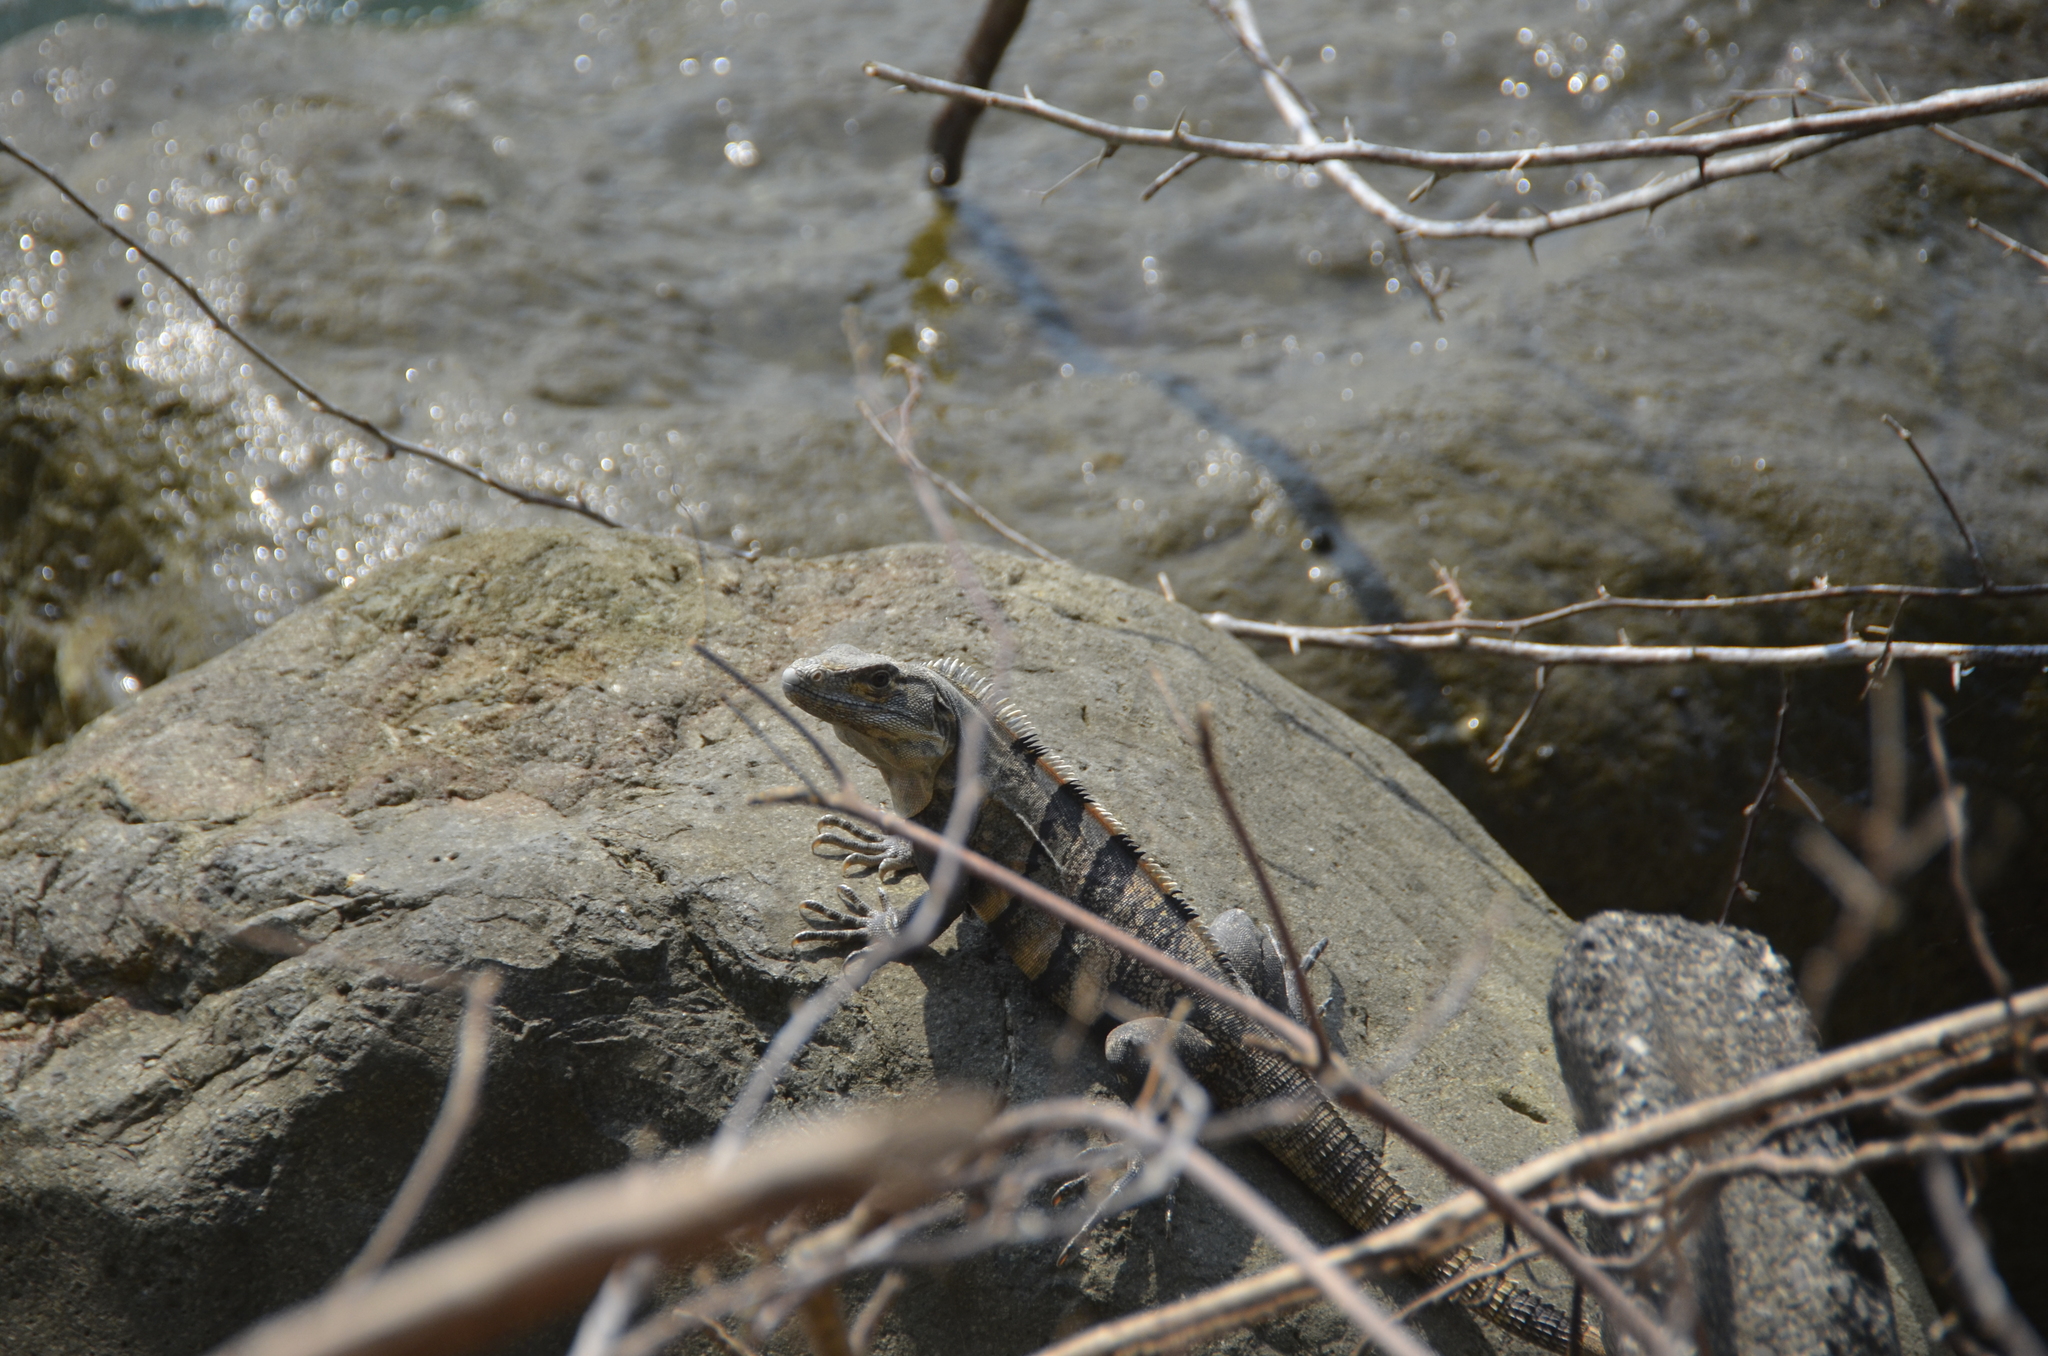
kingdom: Animalia
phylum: Chordata
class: Squamata
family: Iguanidae
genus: Ctenosaura
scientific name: Ctenosaura similis
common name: Black spiny-tailed iguana
